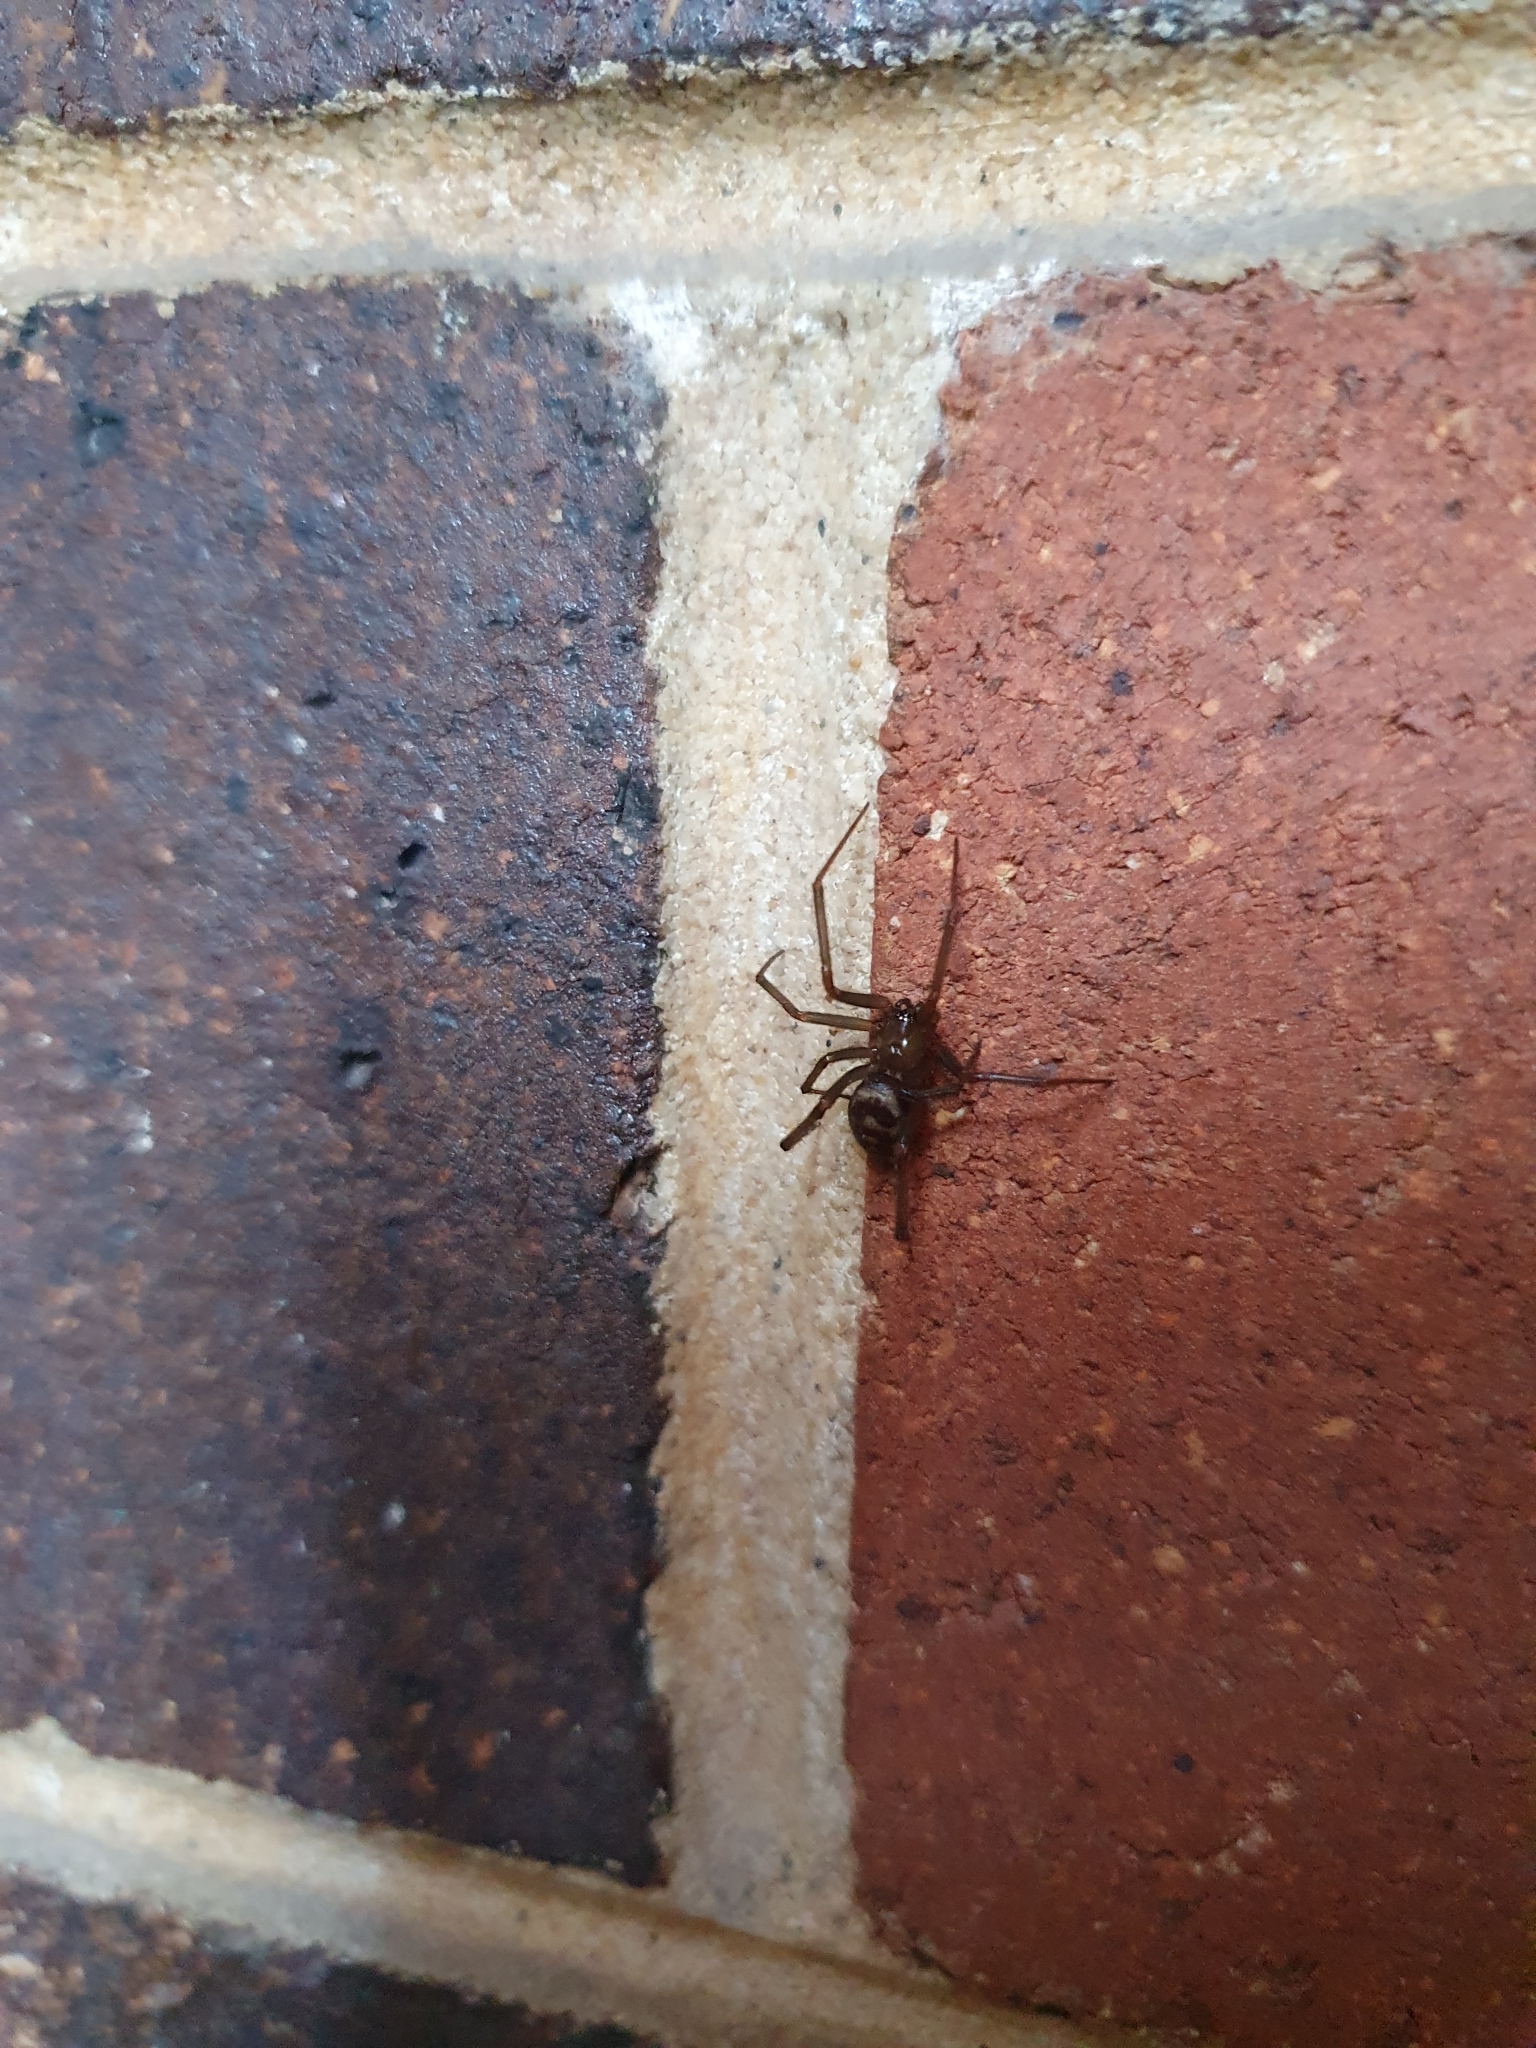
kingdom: Animalia
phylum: Arthropoda
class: Arachnida
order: Araneae
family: Theridiidae
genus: Steatoda
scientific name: Steatoda grossa
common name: False black widow
